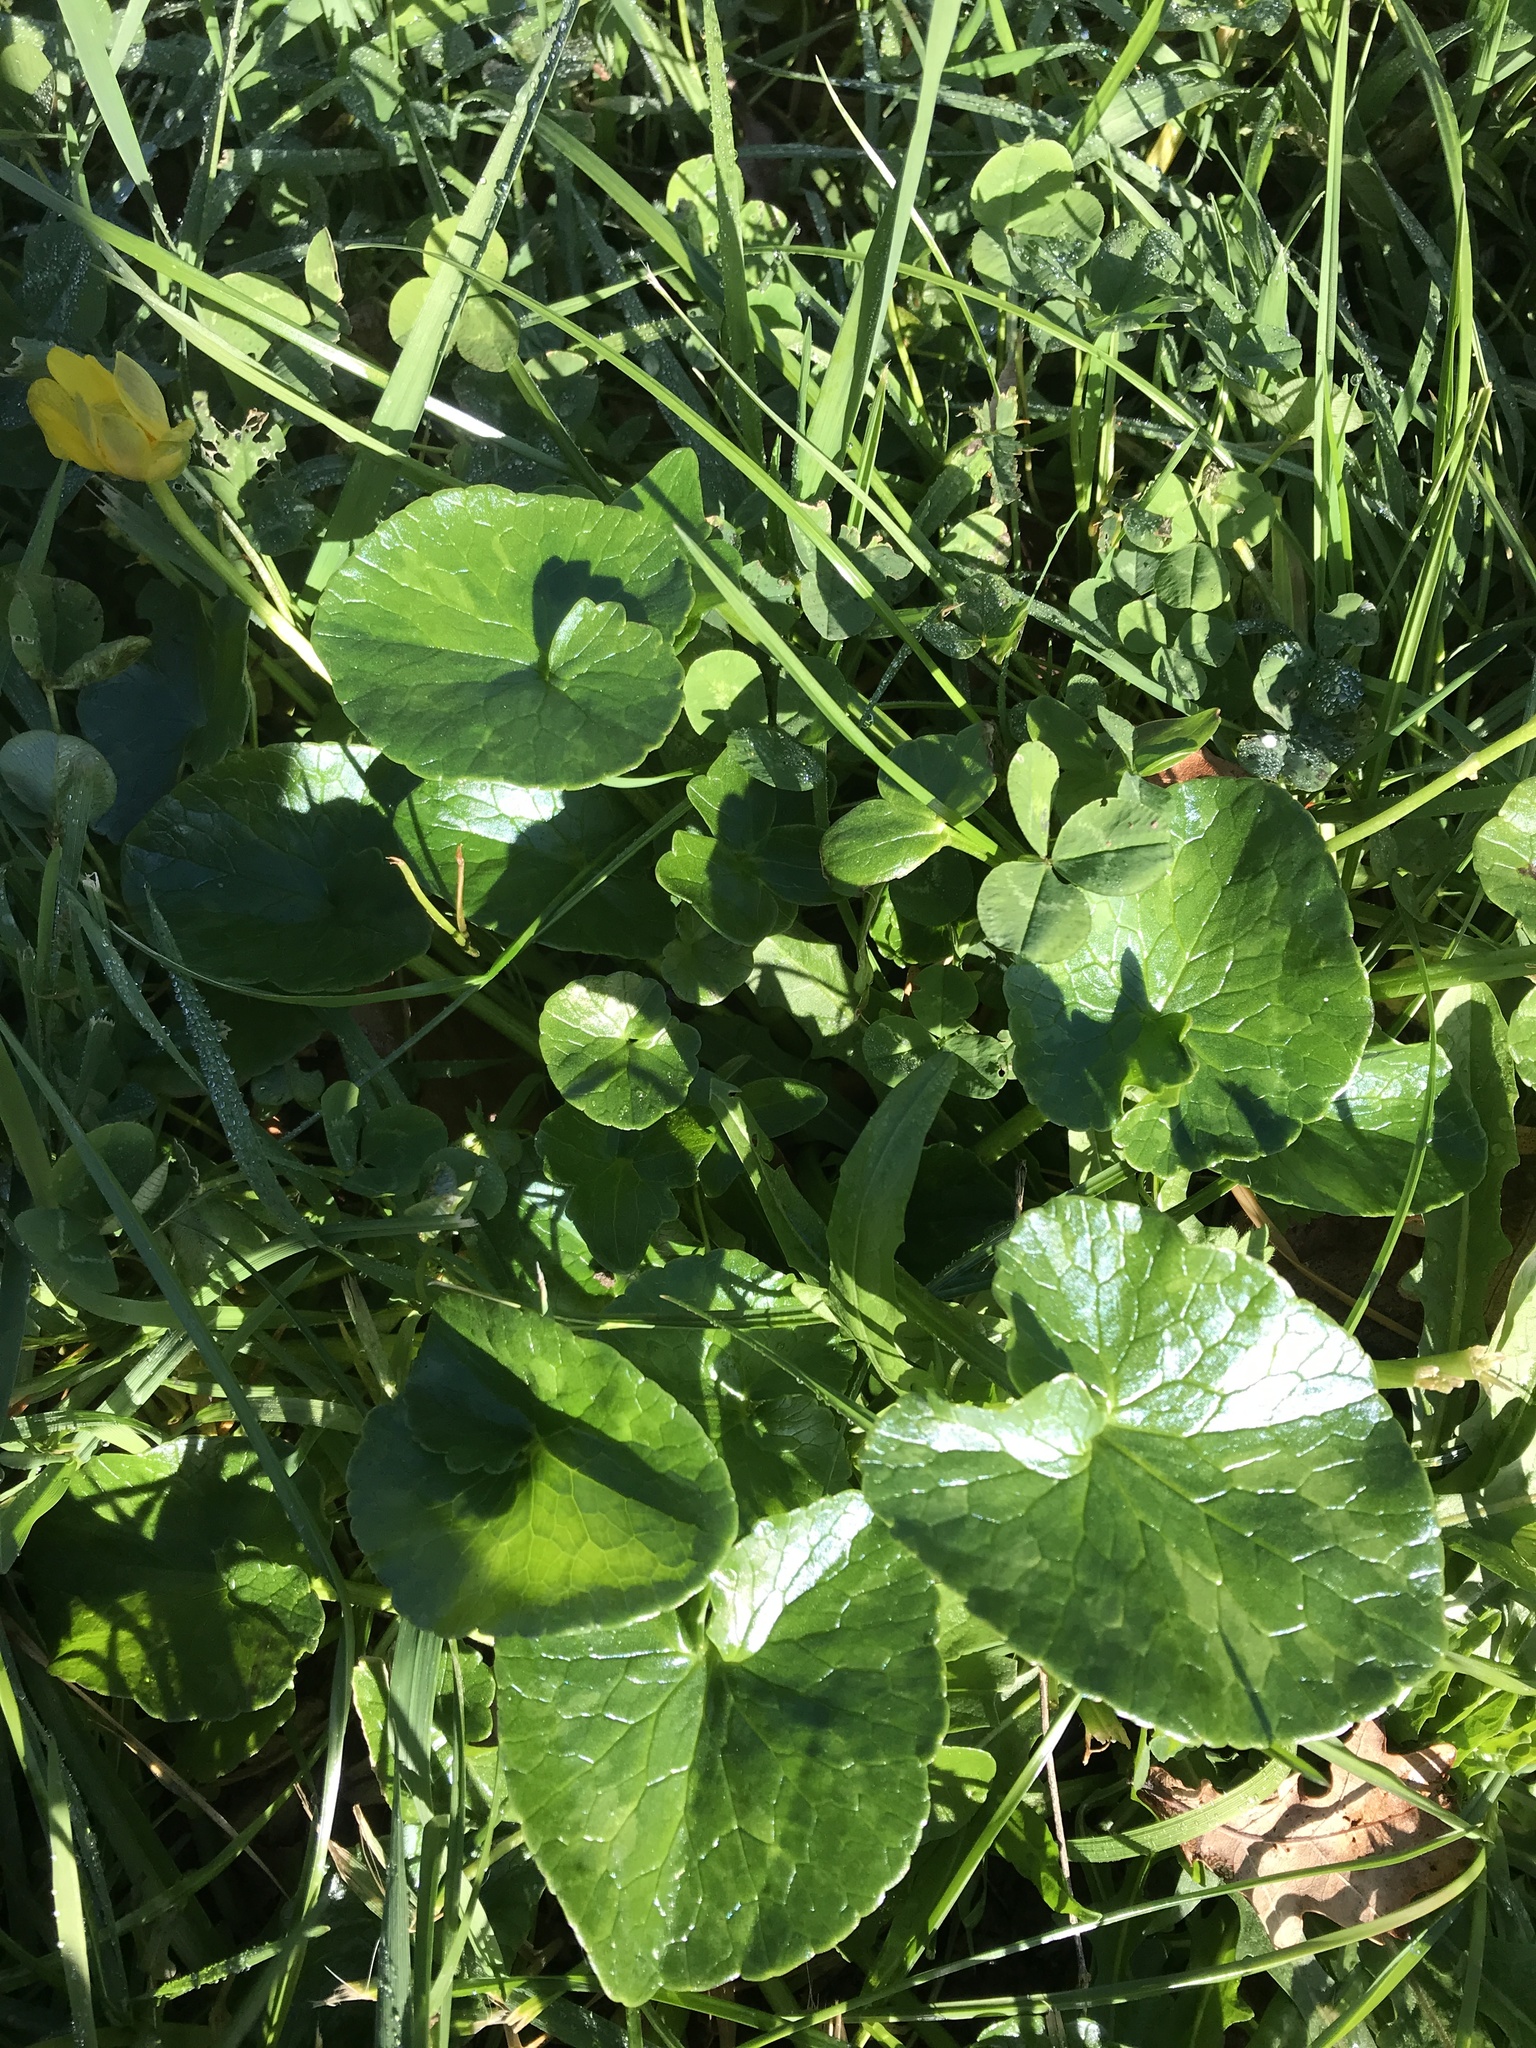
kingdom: Plantae
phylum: Tracheophyta
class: Magnoliopsida
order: Ranunculales
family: Ranunculaceae
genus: Ficaria
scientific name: Ficaria verna
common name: Lesser celandine
